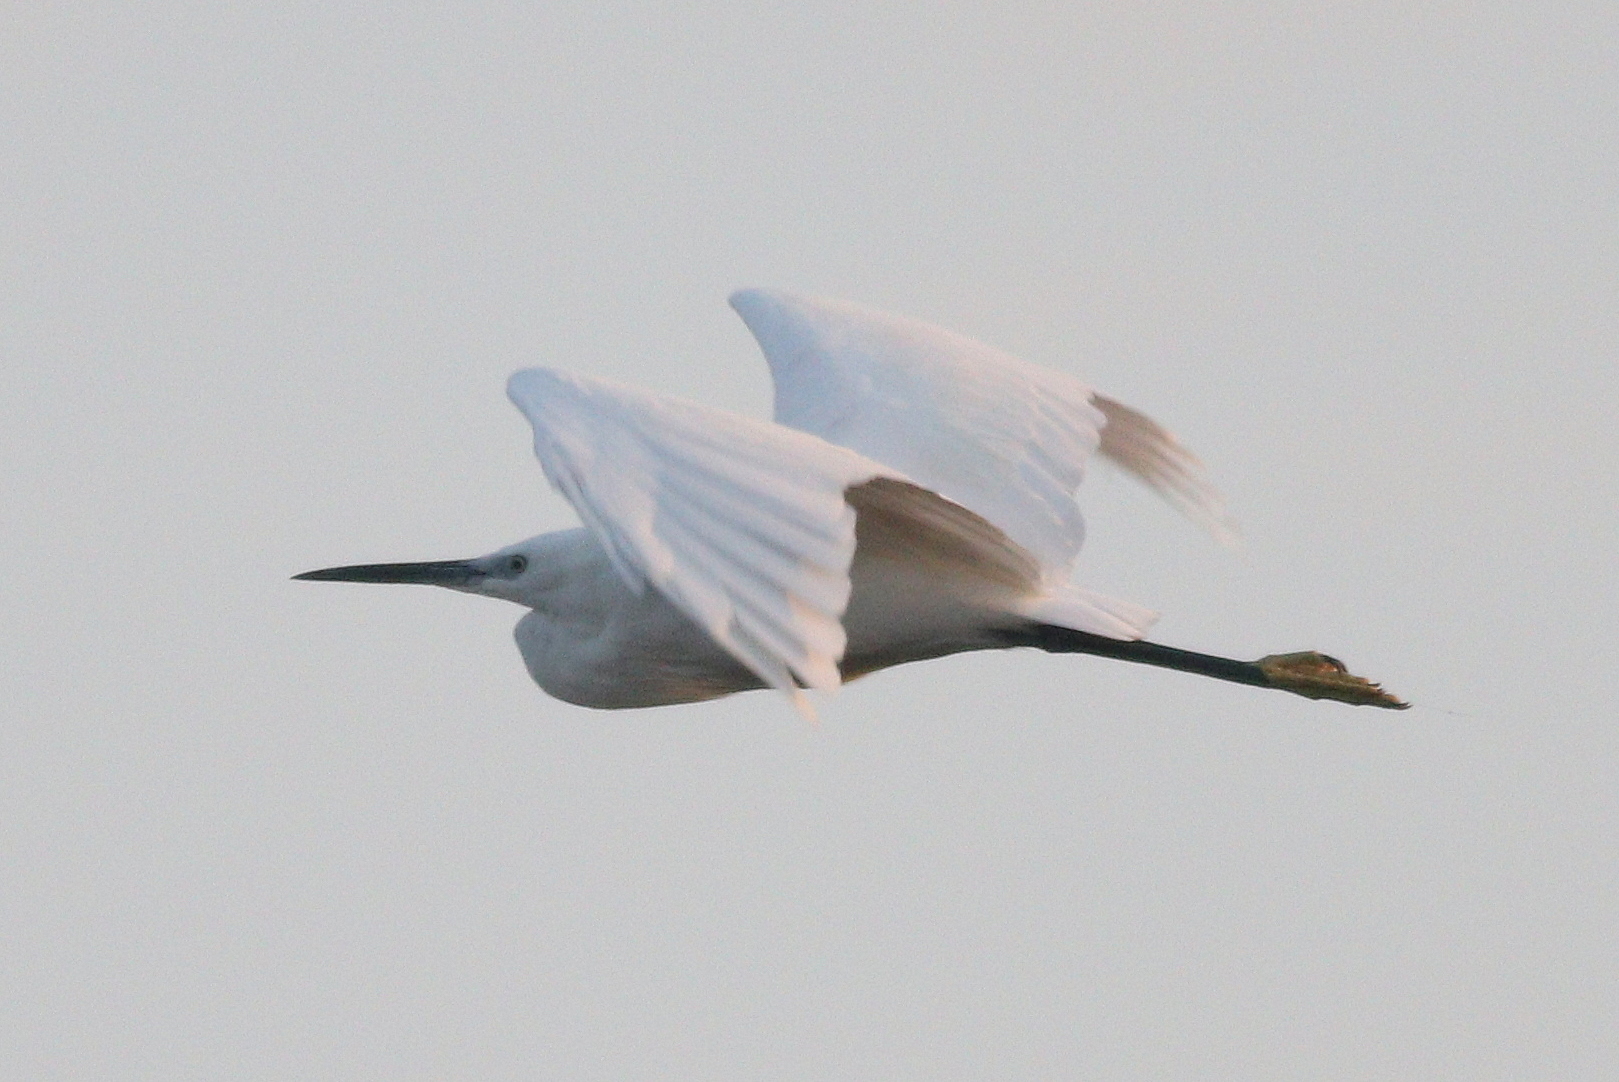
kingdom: Animalia
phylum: Chordata
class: Aves
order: Pelecaniformes
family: Ardeidae
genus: Egretta
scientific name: Egretta garzetta
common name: Little egret
